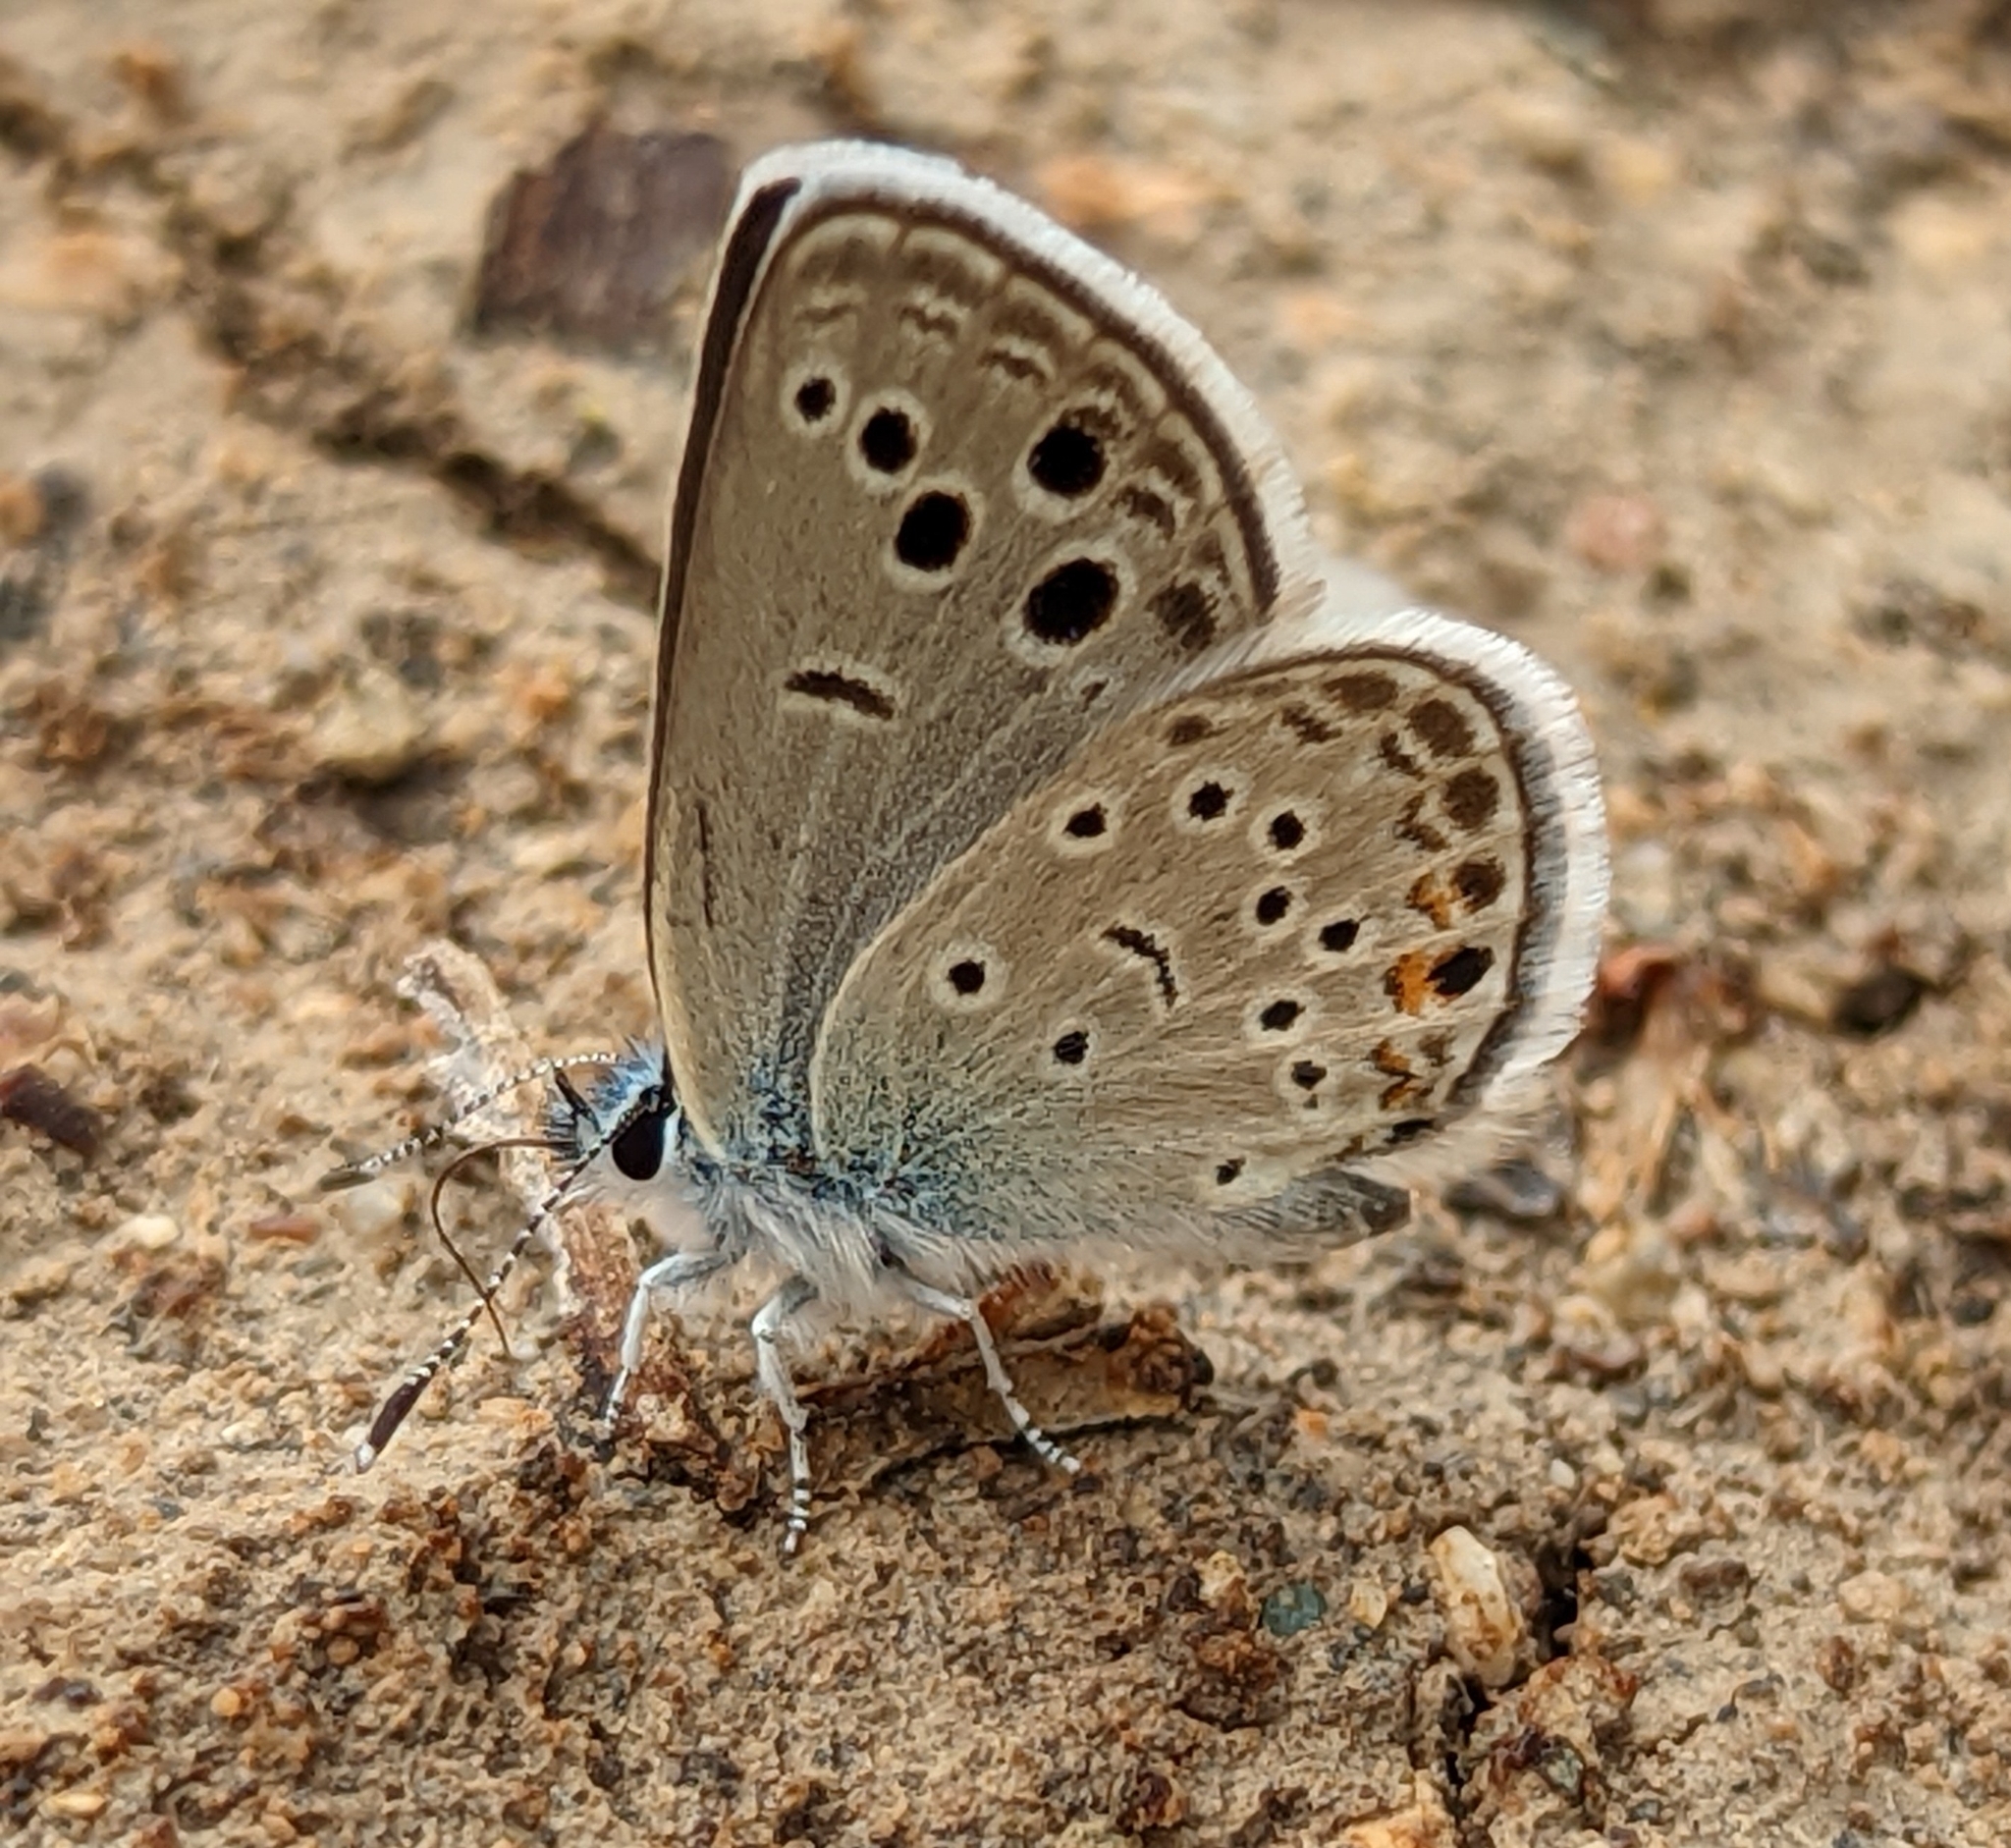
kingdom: Animalia
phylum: Arthropoda
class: Insecta
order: Lepidoptera
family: Lycaenidae
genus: Turanana
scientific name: Turanana panagea
